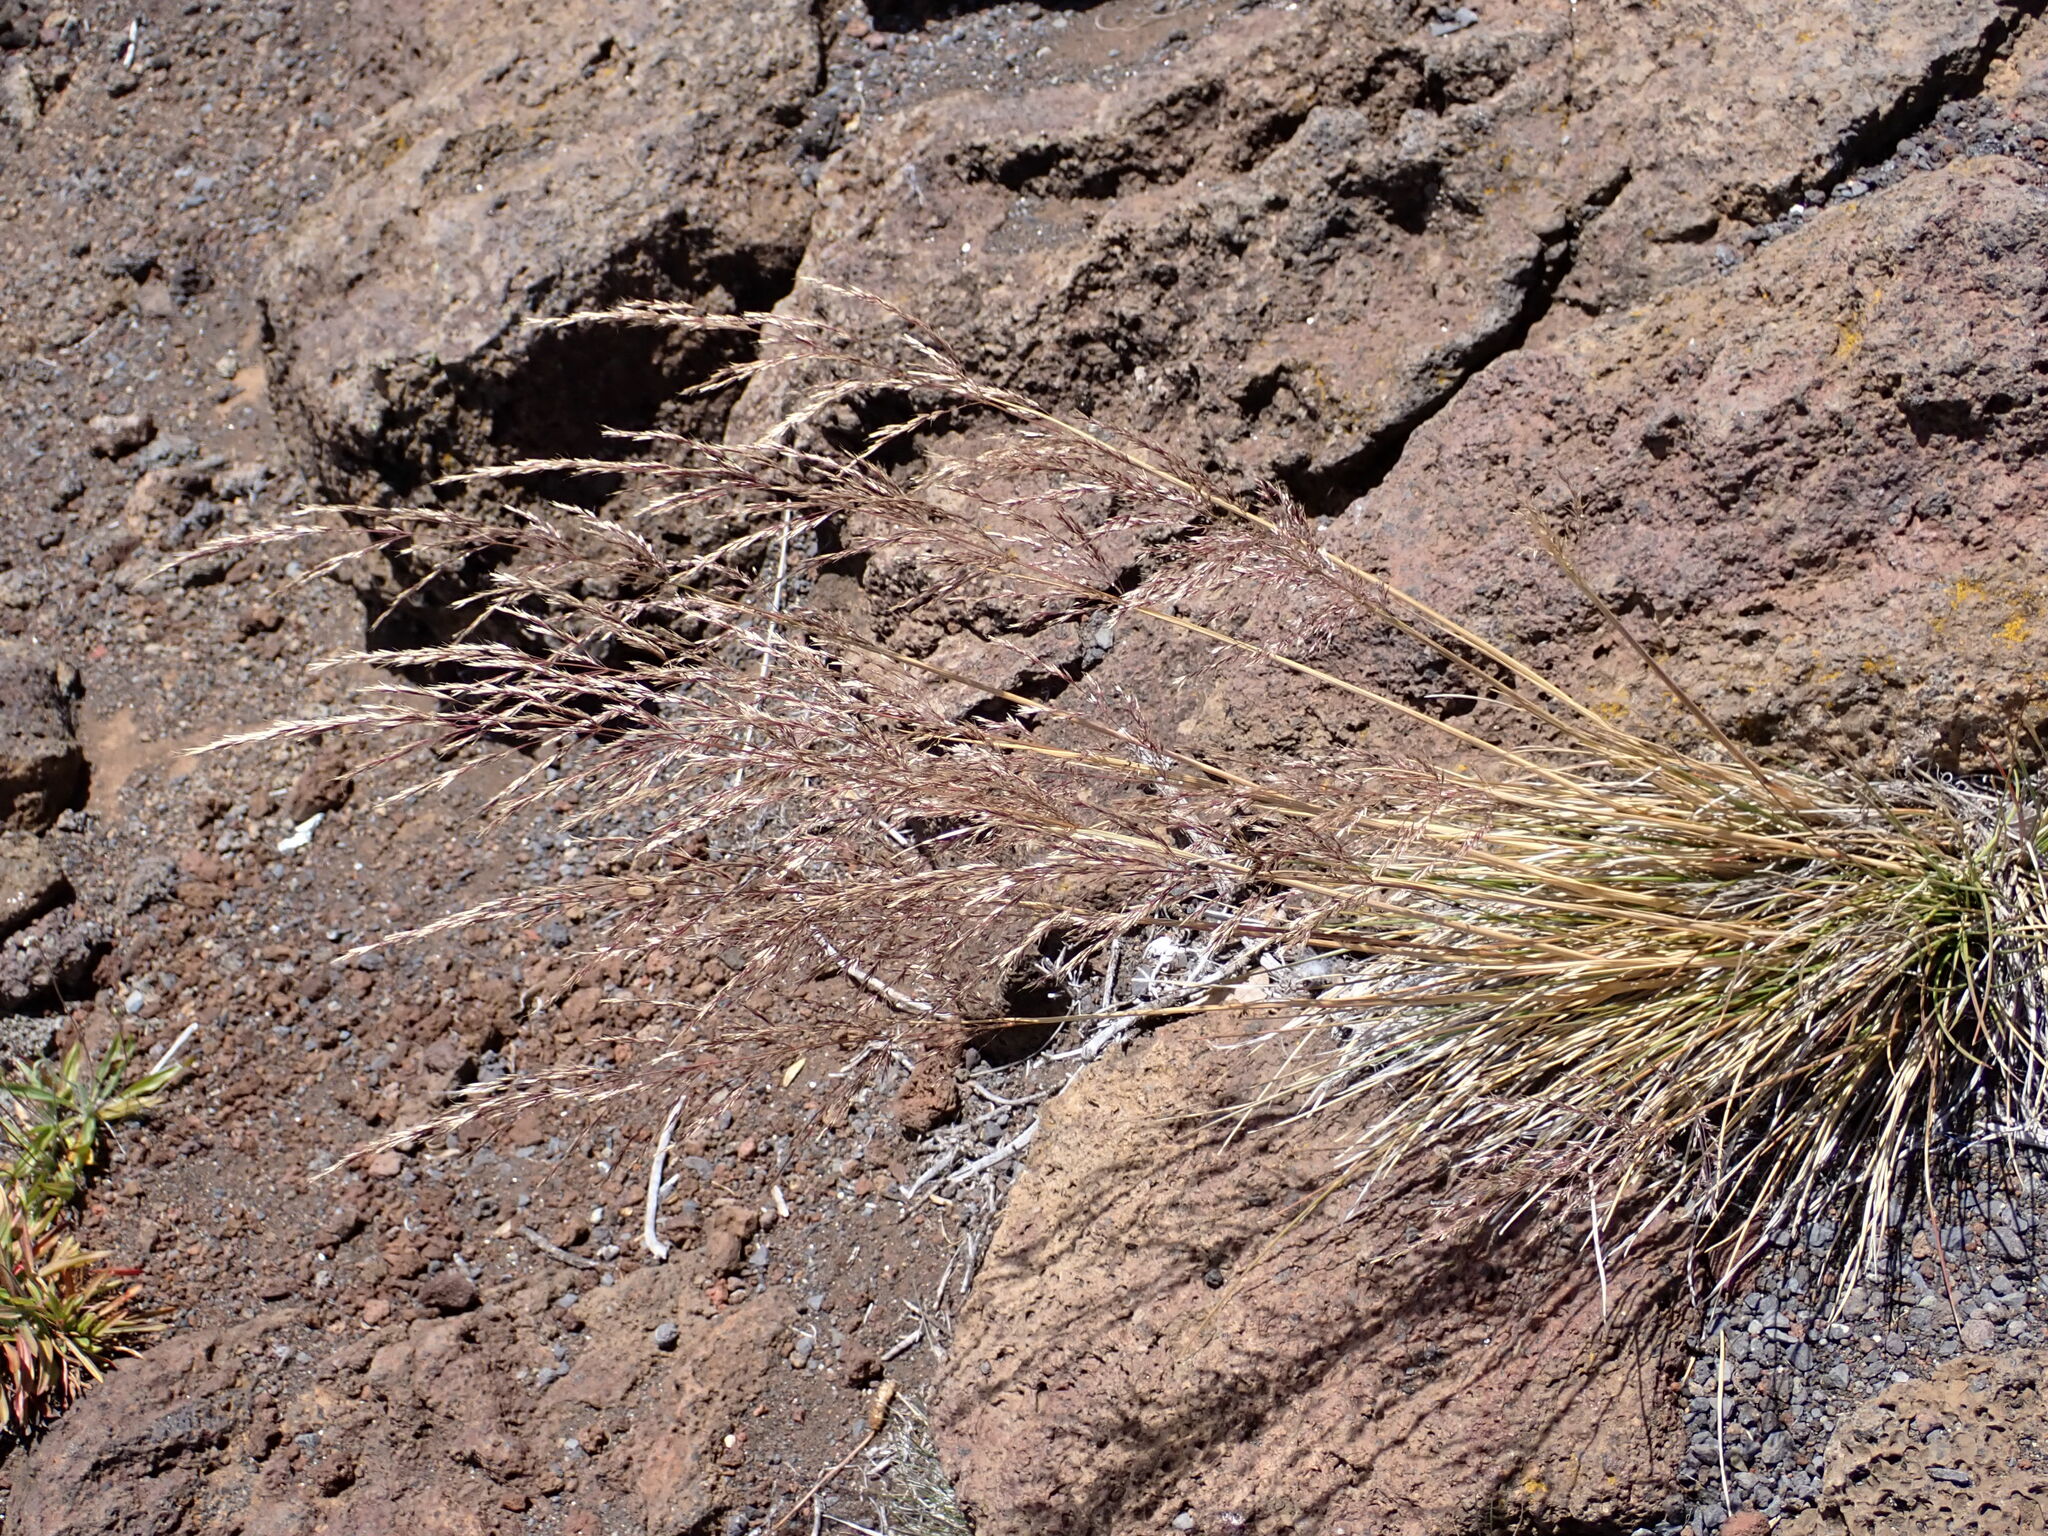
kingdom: Plantae
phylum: Tracheophyta
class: Liliopsida
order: Poales
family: Poaceae
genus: Deschampsia
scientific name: Deschampsia nubigena
